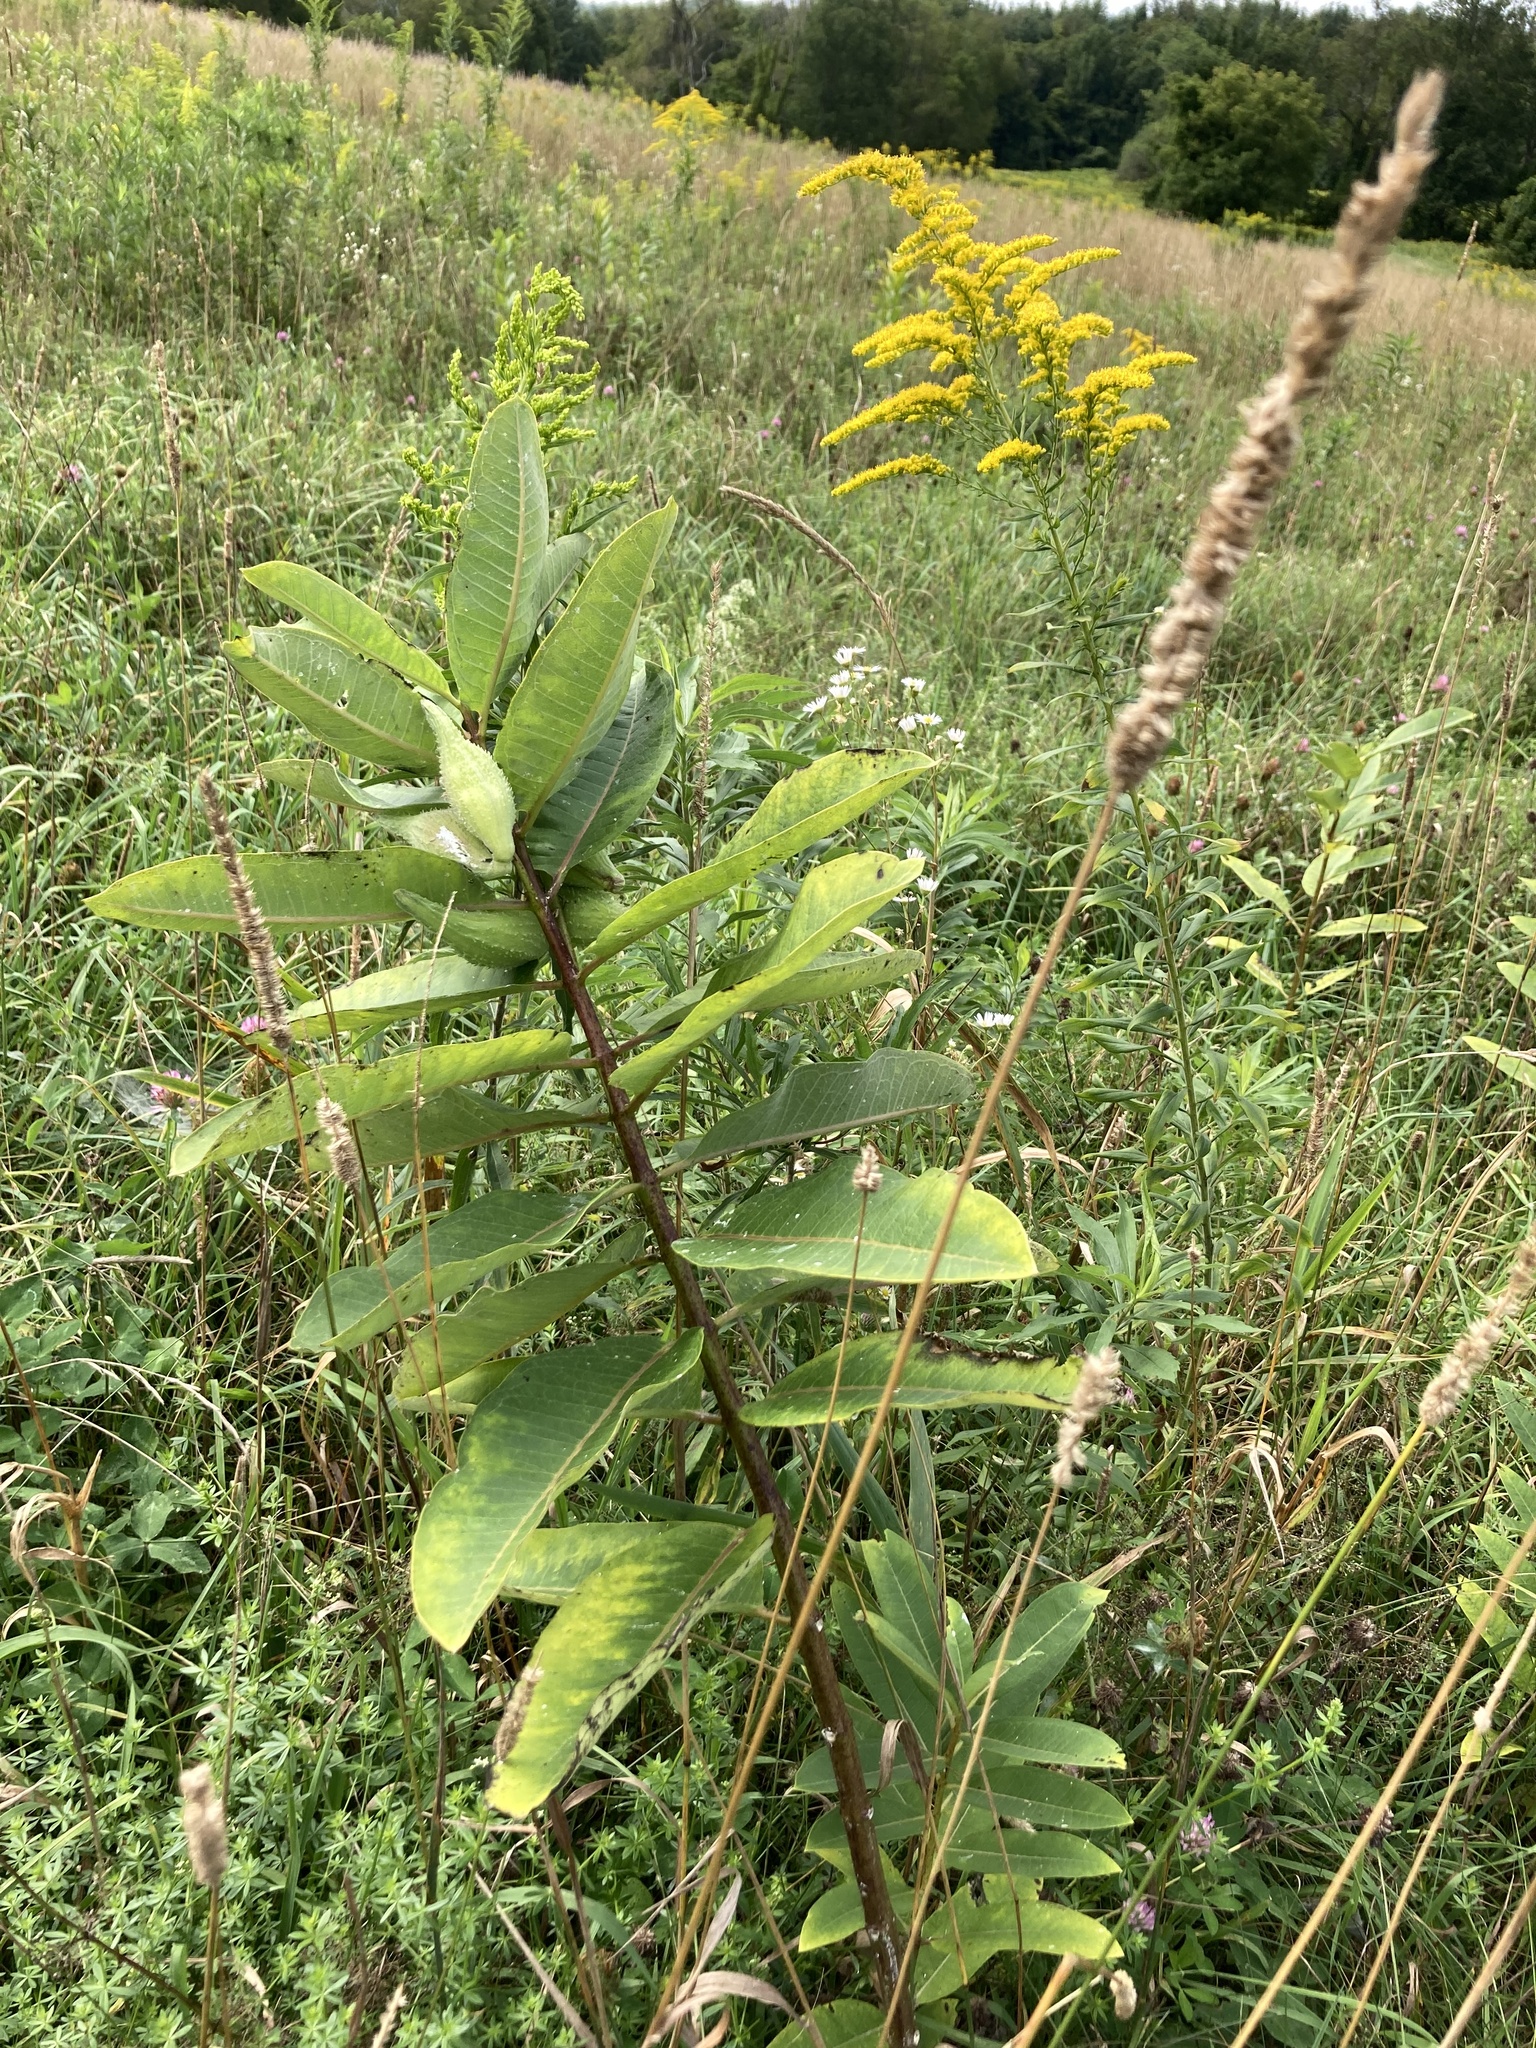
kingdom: Plantae
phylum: Tracheophyta
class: Magnoliopsida
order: Gentianales
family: Apocynaceae
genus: Asclepias
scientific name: Asclepias syriaca
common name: Common milkweed
